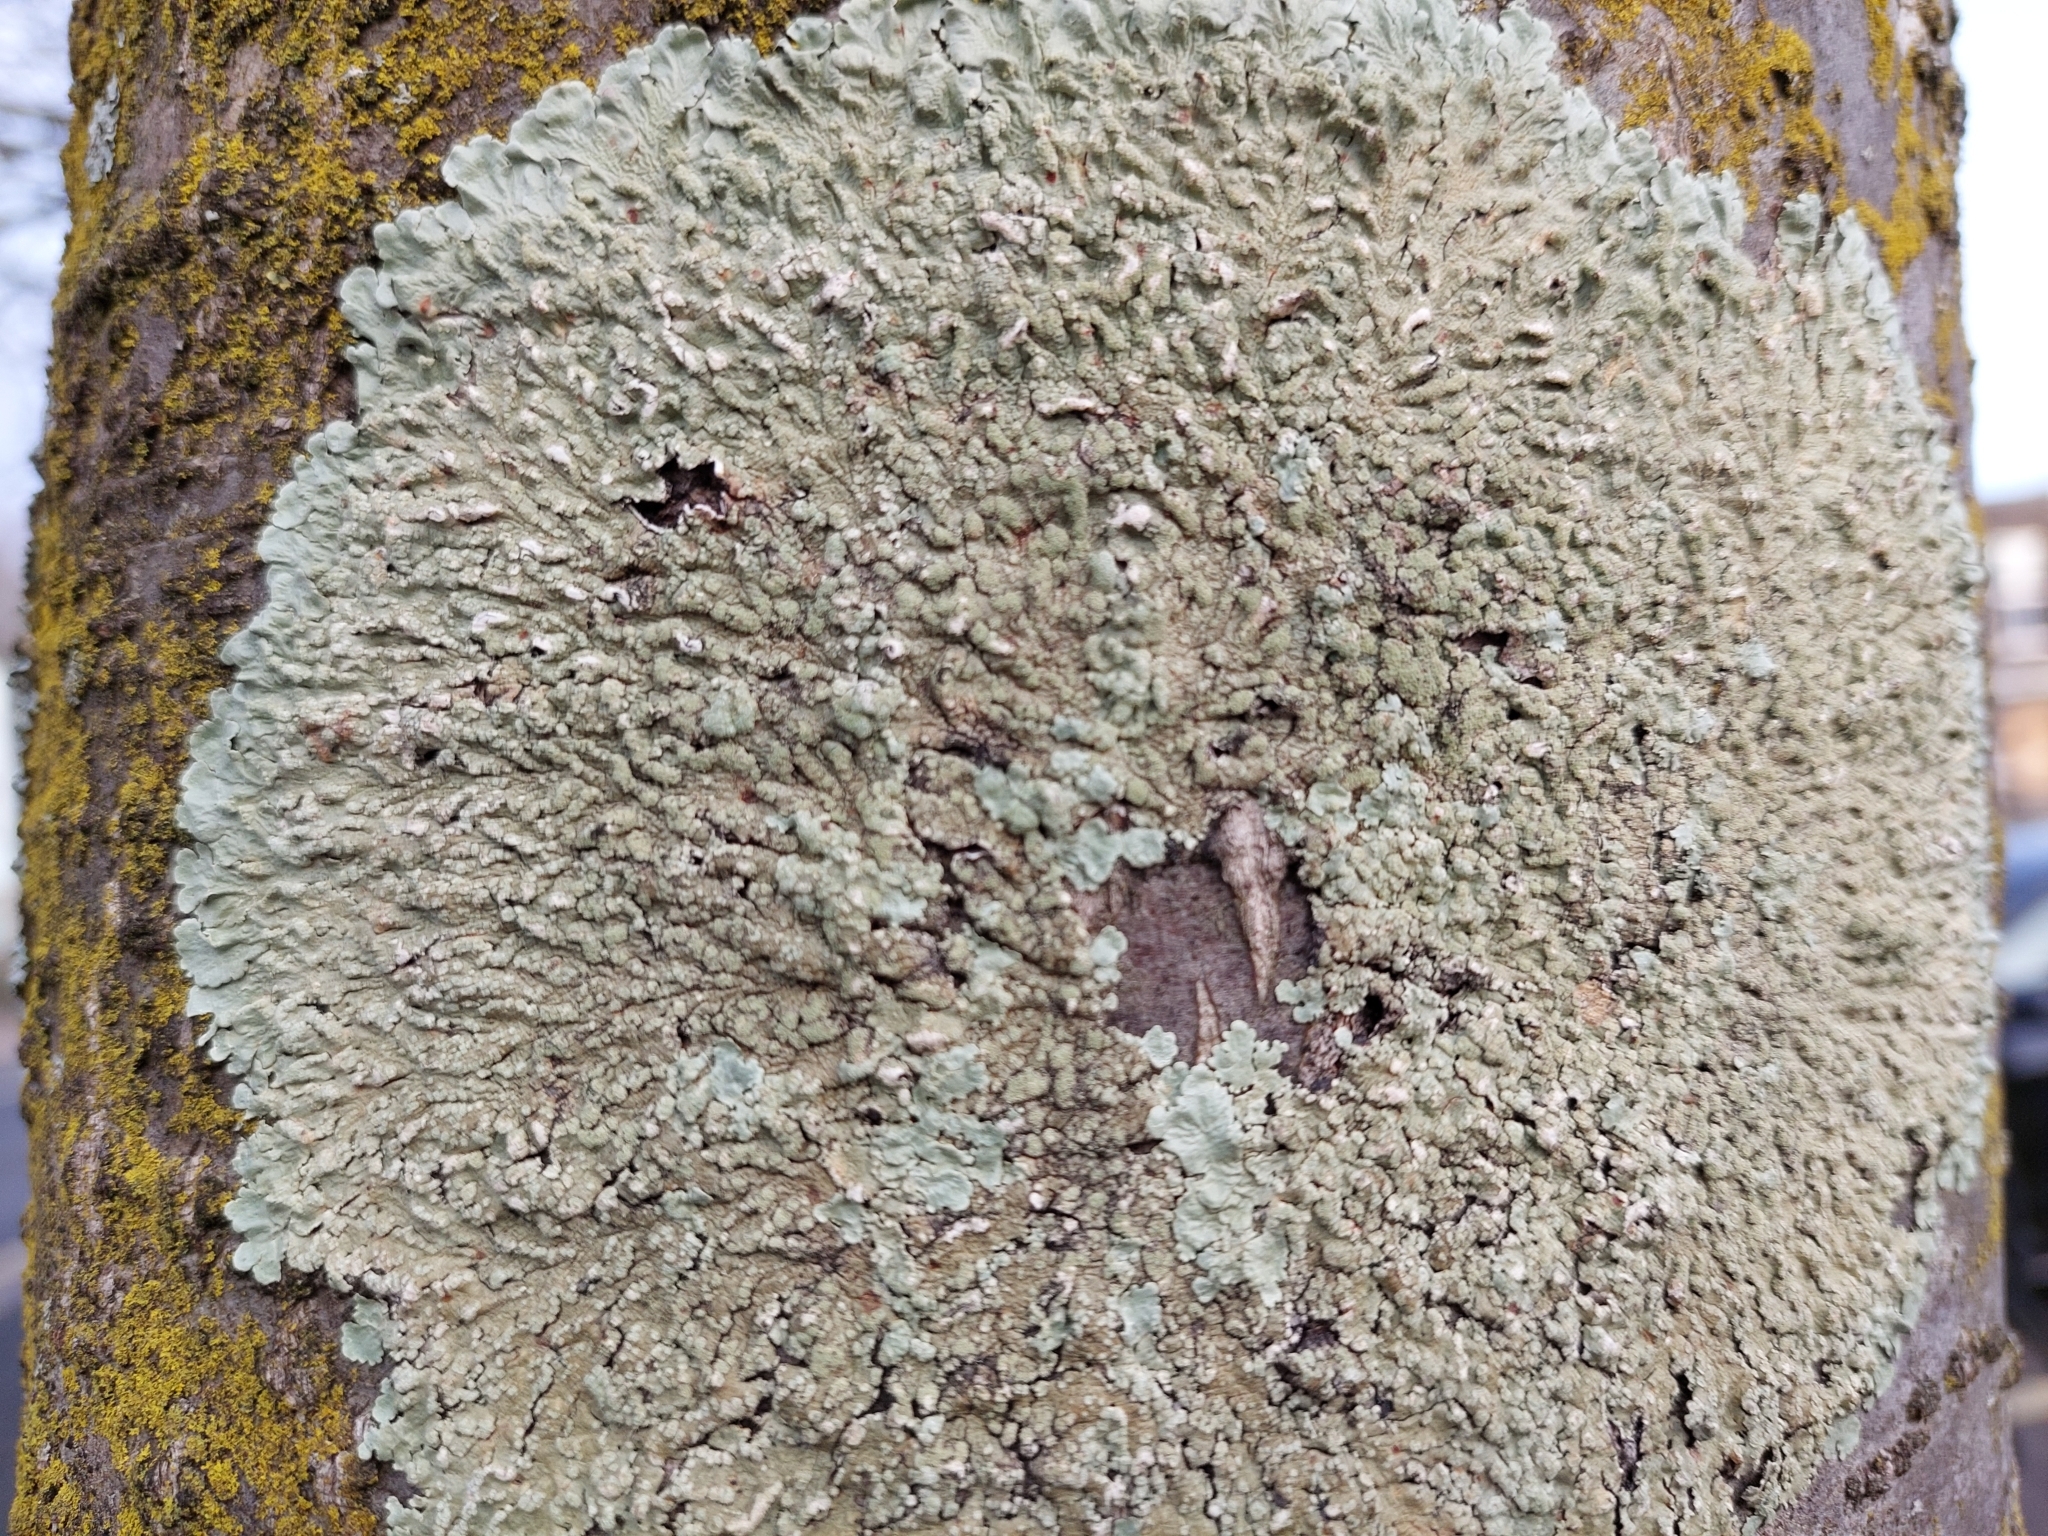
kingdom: Fungi
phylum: Ascomycota
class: Lecanoromycetes
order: Lecanorales
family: Parmeliaceae
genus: Flavoparmelia
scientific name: Flavoparmelia soredians
